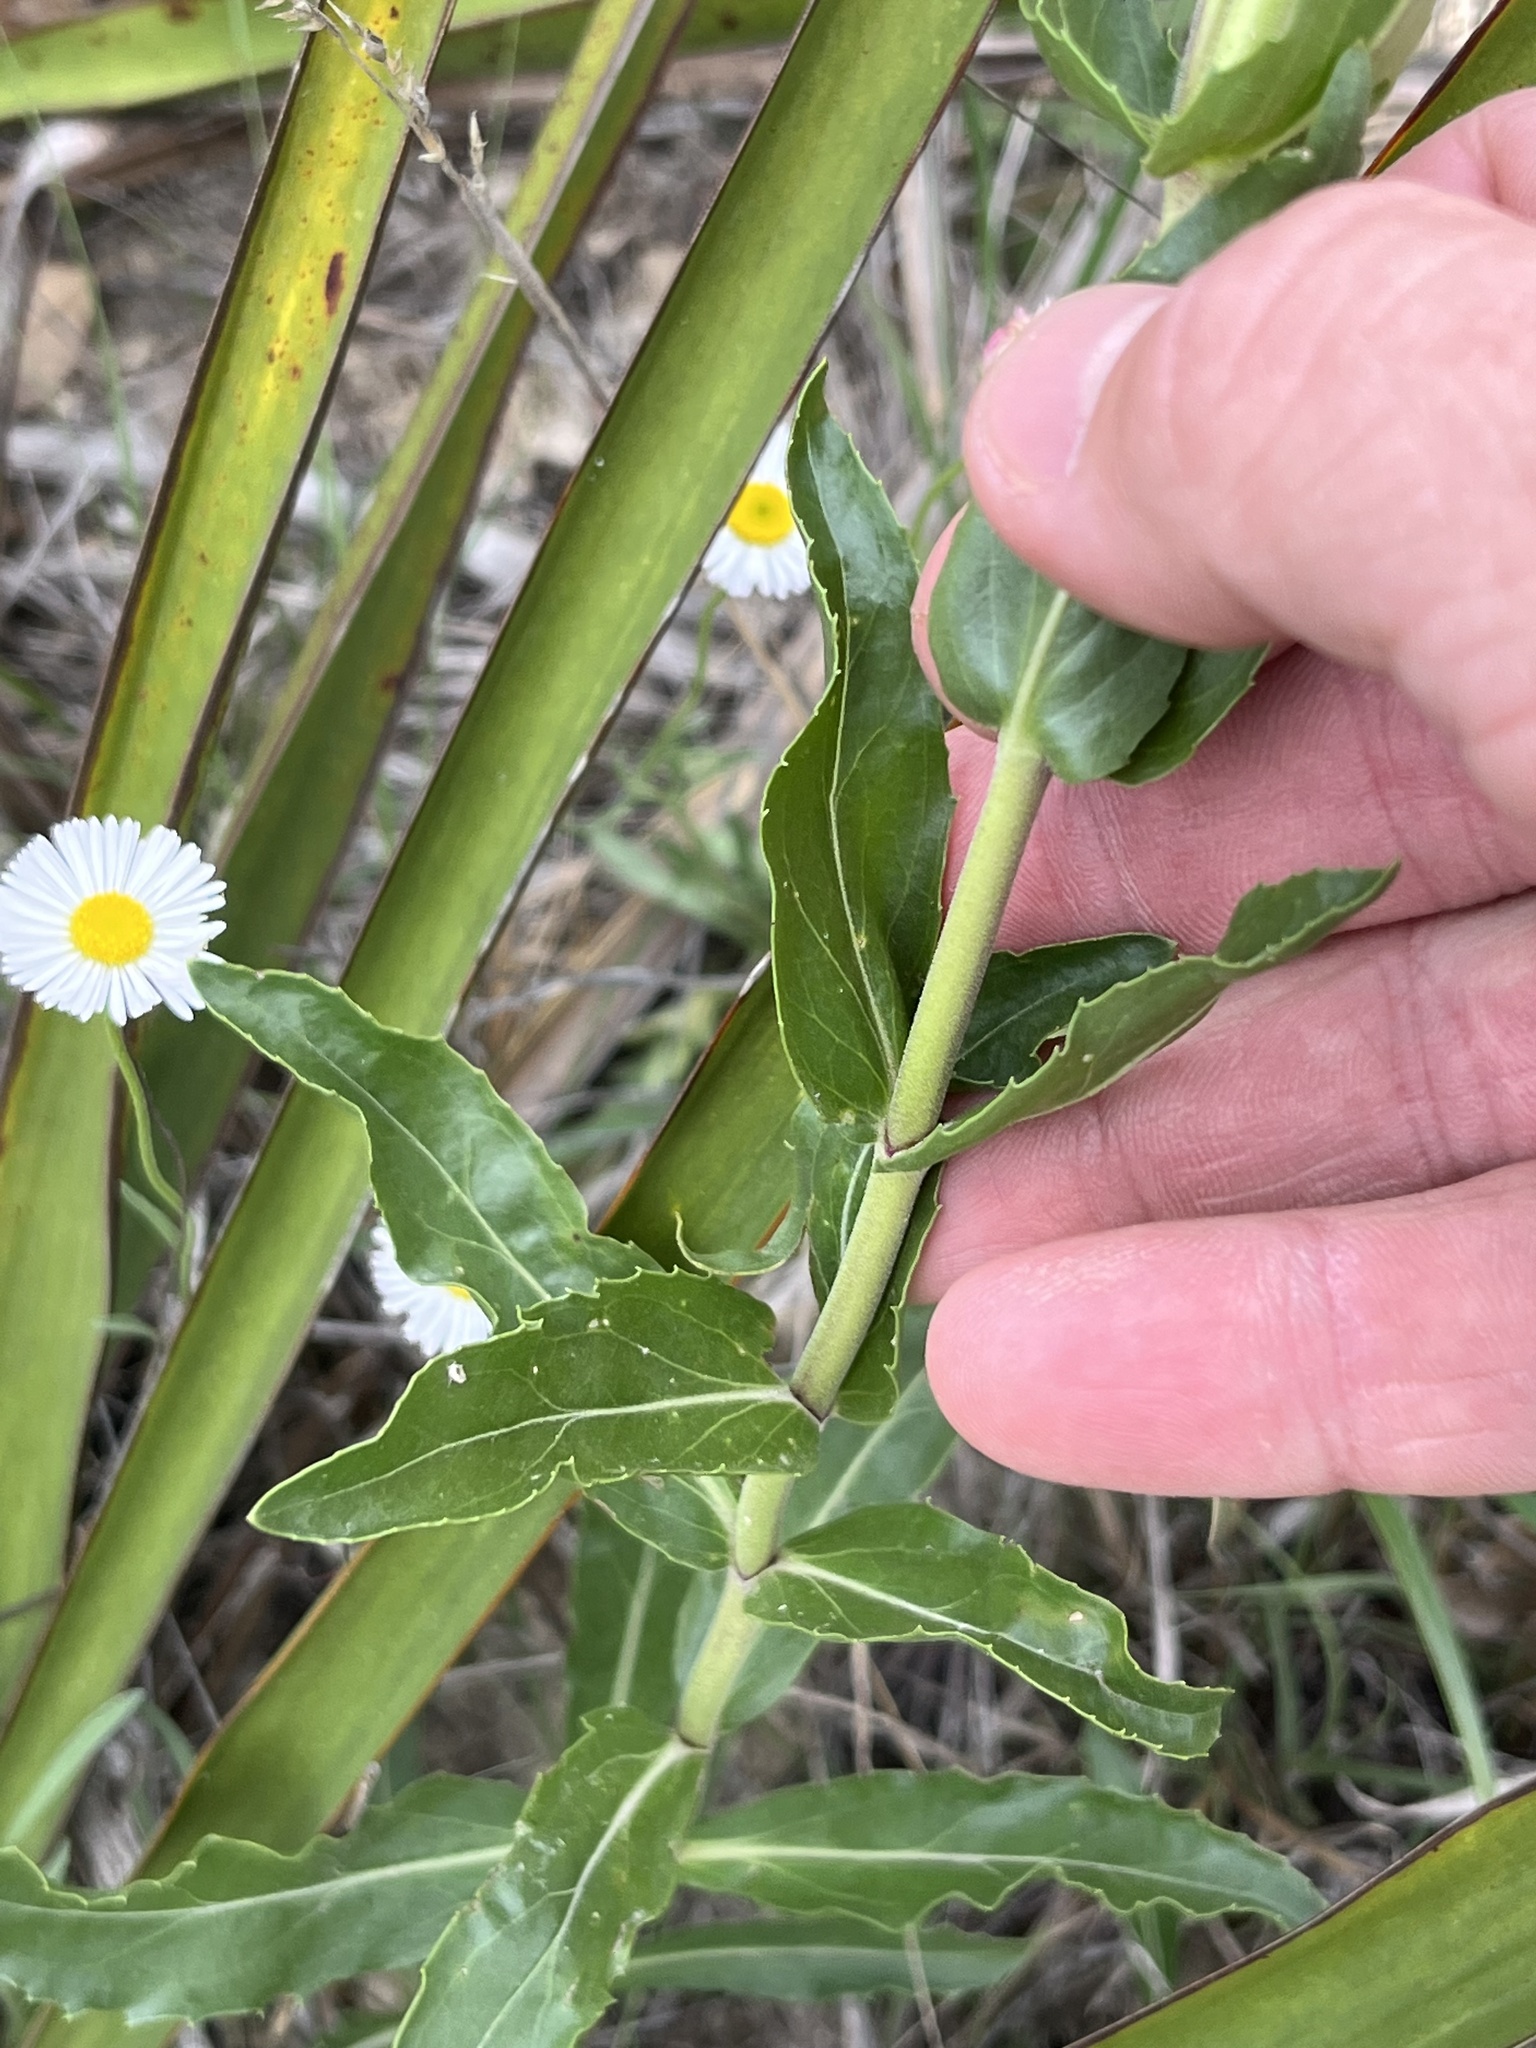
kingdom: Plantae
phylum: Tracheophyta
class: Magnoliopsida
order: Lamiales
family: Plantaginaceae
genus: Penstemon
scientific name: Penstemon cobaea
